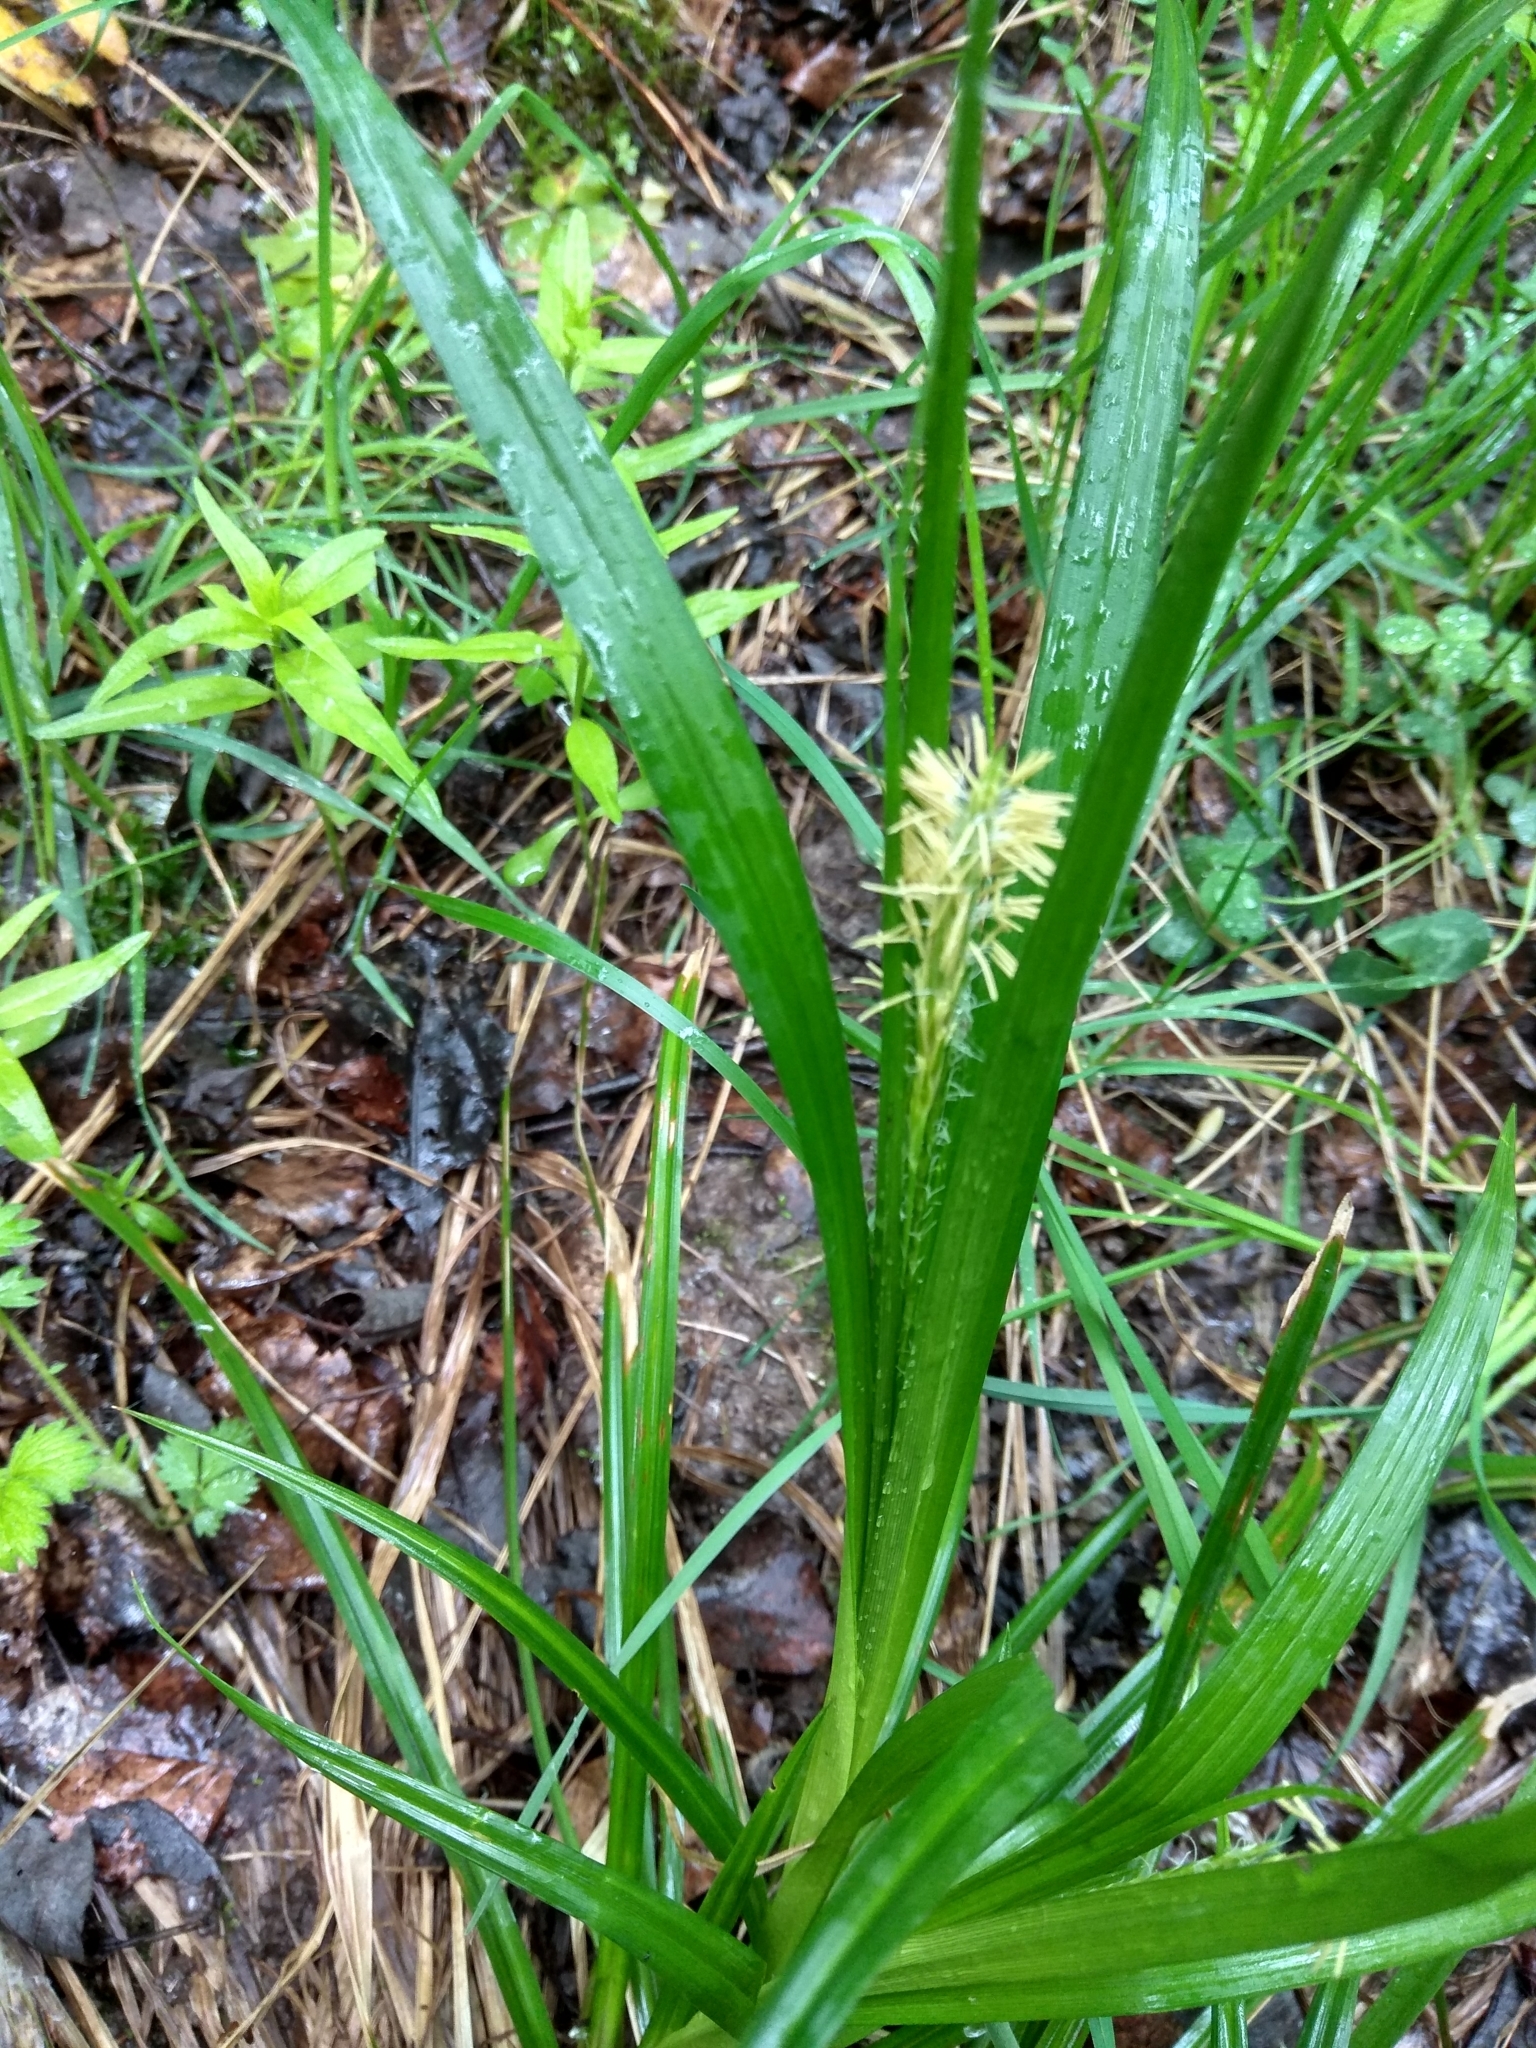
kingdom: Plantae
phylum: Tracheophyta
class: Liliopsida
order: Poales
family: Cyperaceae
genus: Carex
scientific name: Carex sylvatica
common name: Wood-sedge
